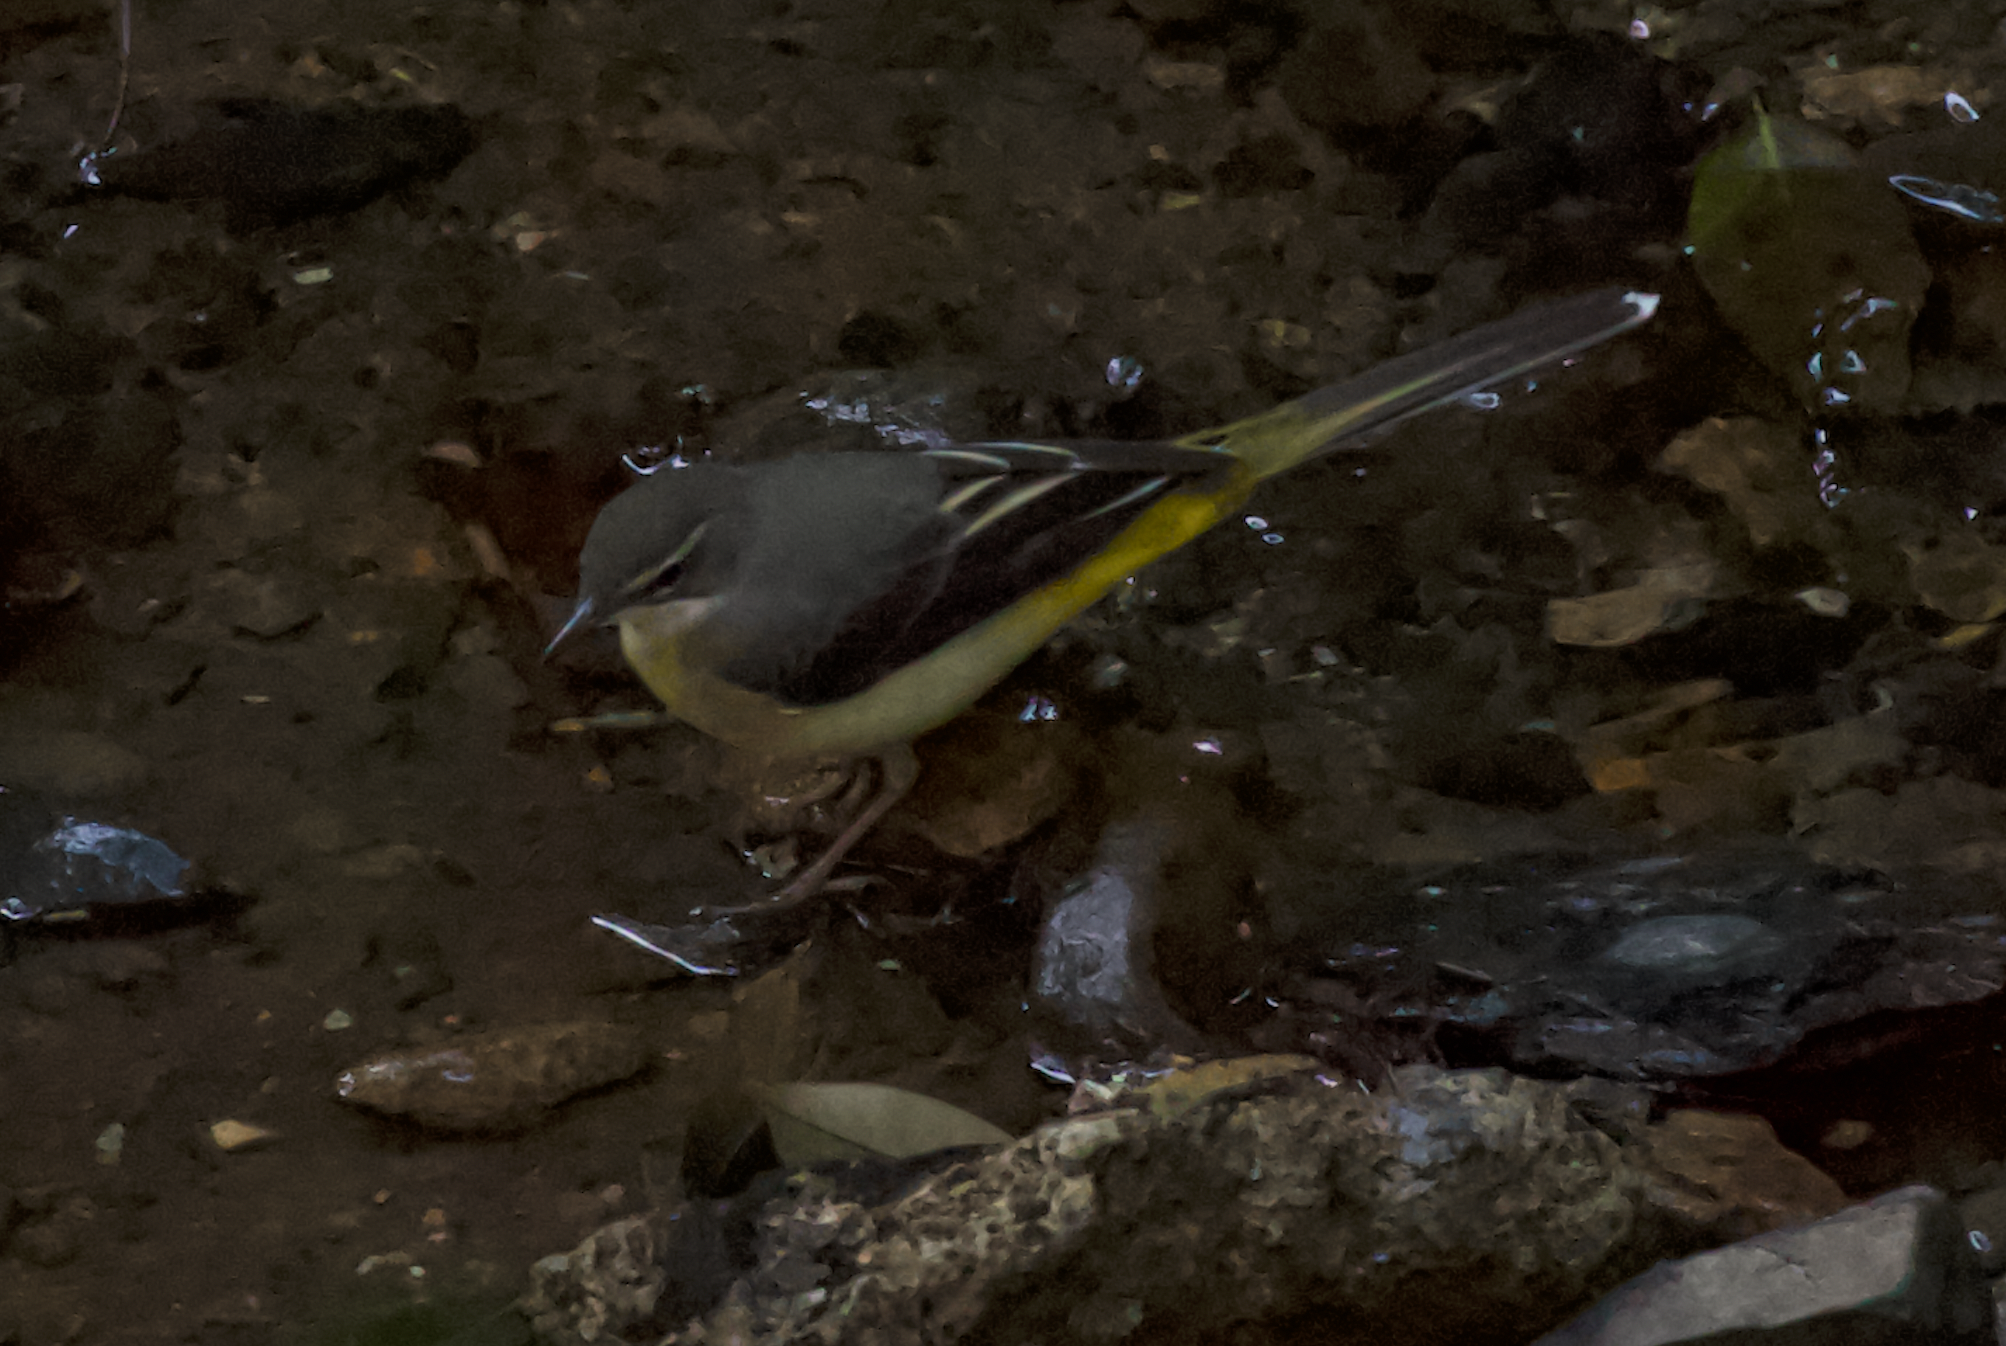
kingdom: Animalia
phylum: Chordata
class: Aves
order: Passeriformes
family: Motacillidae
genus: Motacilla
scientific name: Motacilla cinerea
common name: Grey wagtail
